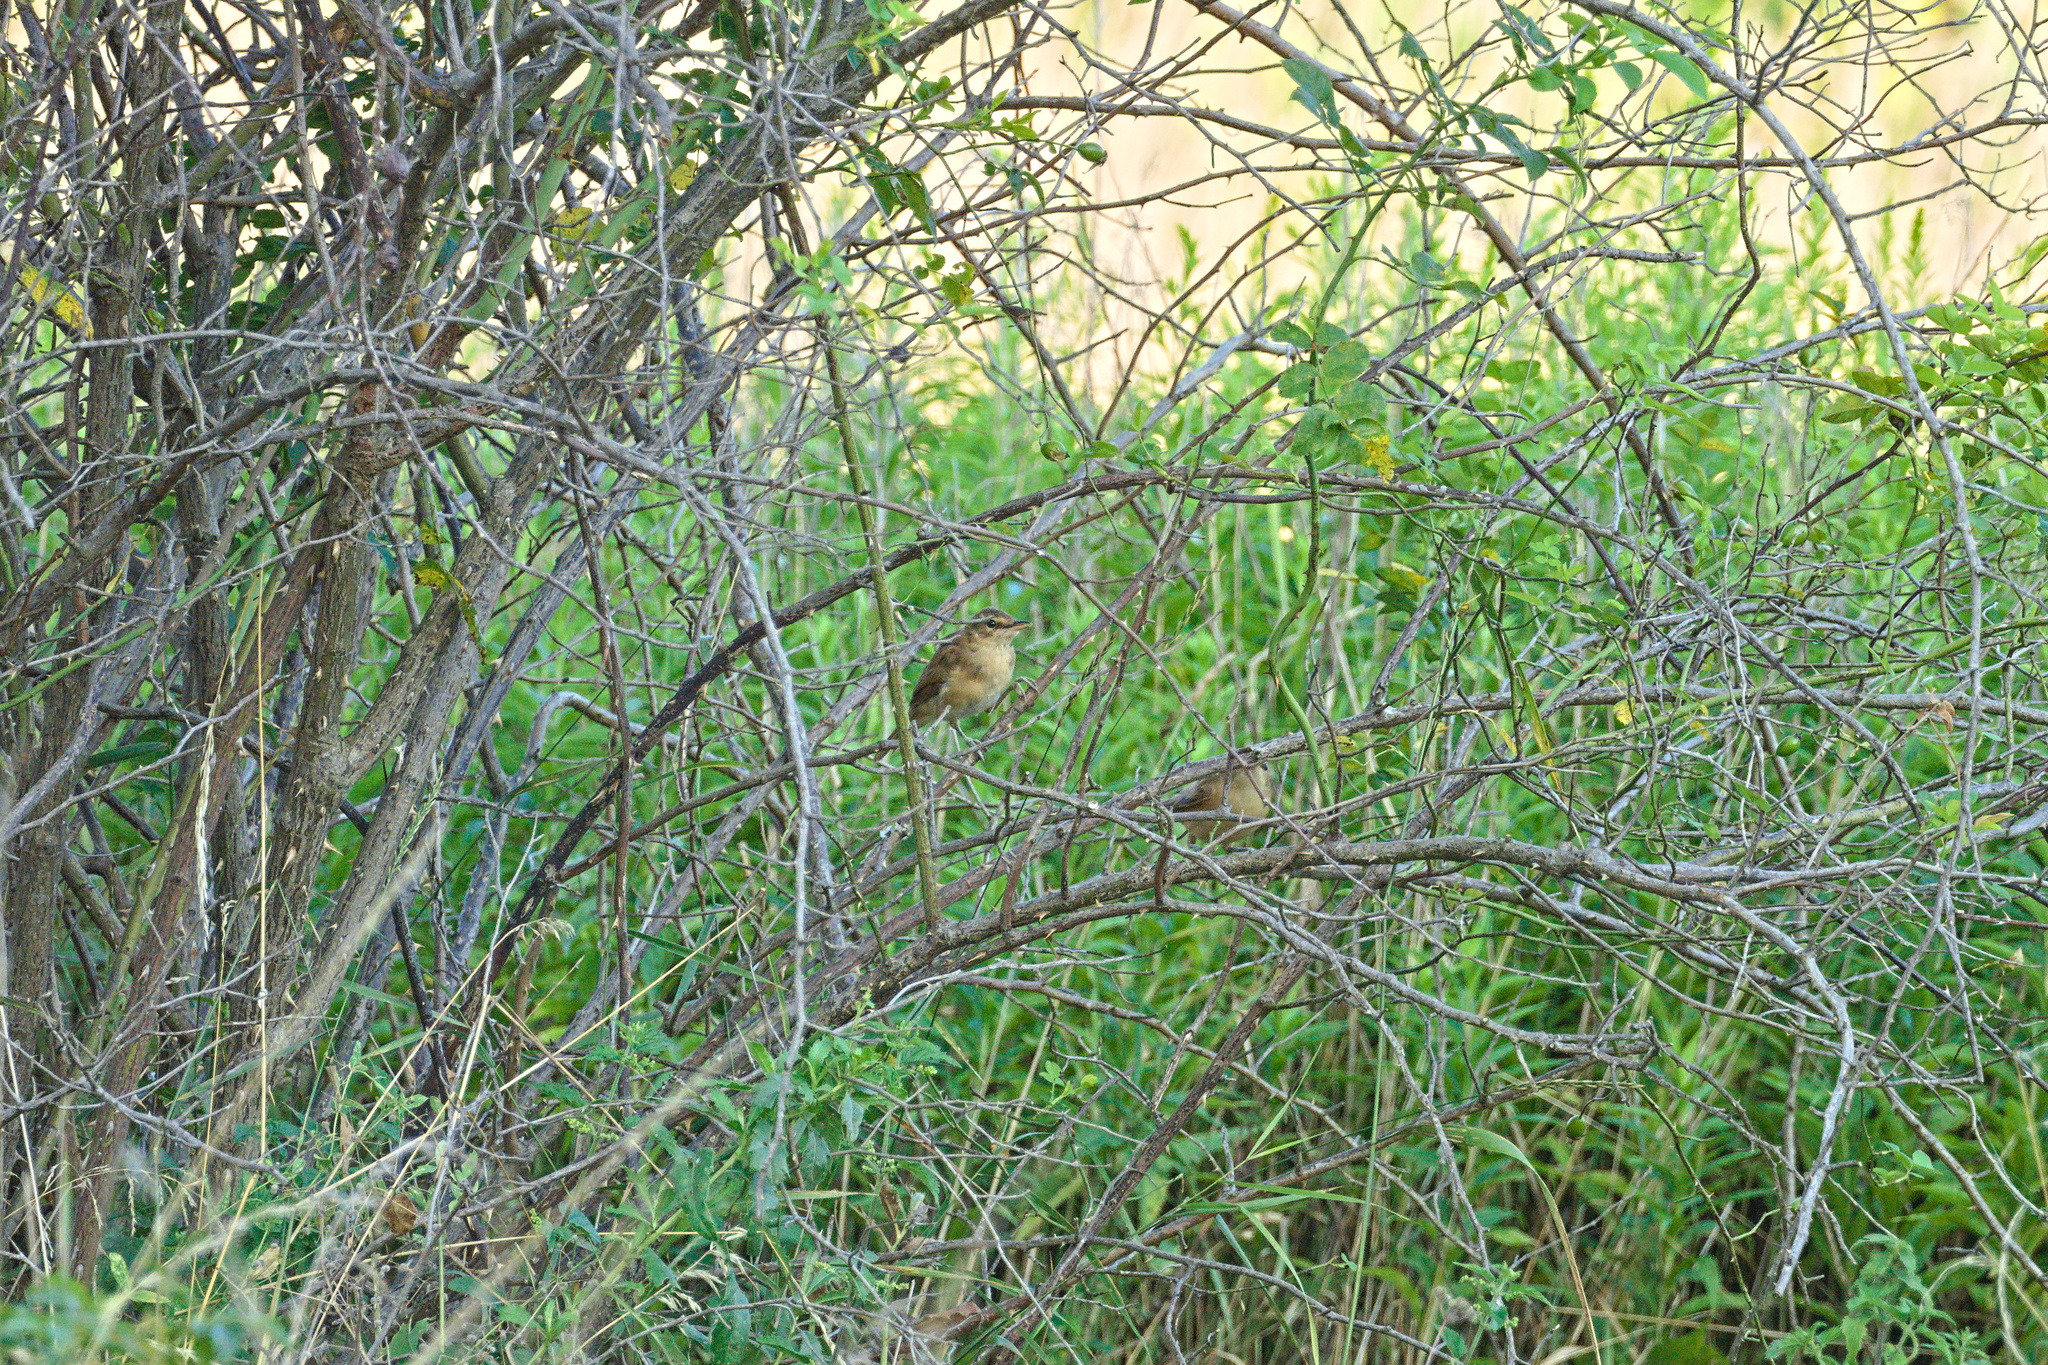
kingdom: Animalia
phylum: Chordata
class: Aves
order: Passeriformes
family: Acrocephalidae
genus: Acrocephalus
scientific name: Acrocephalus arundinaceus
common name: Great reed warbler
